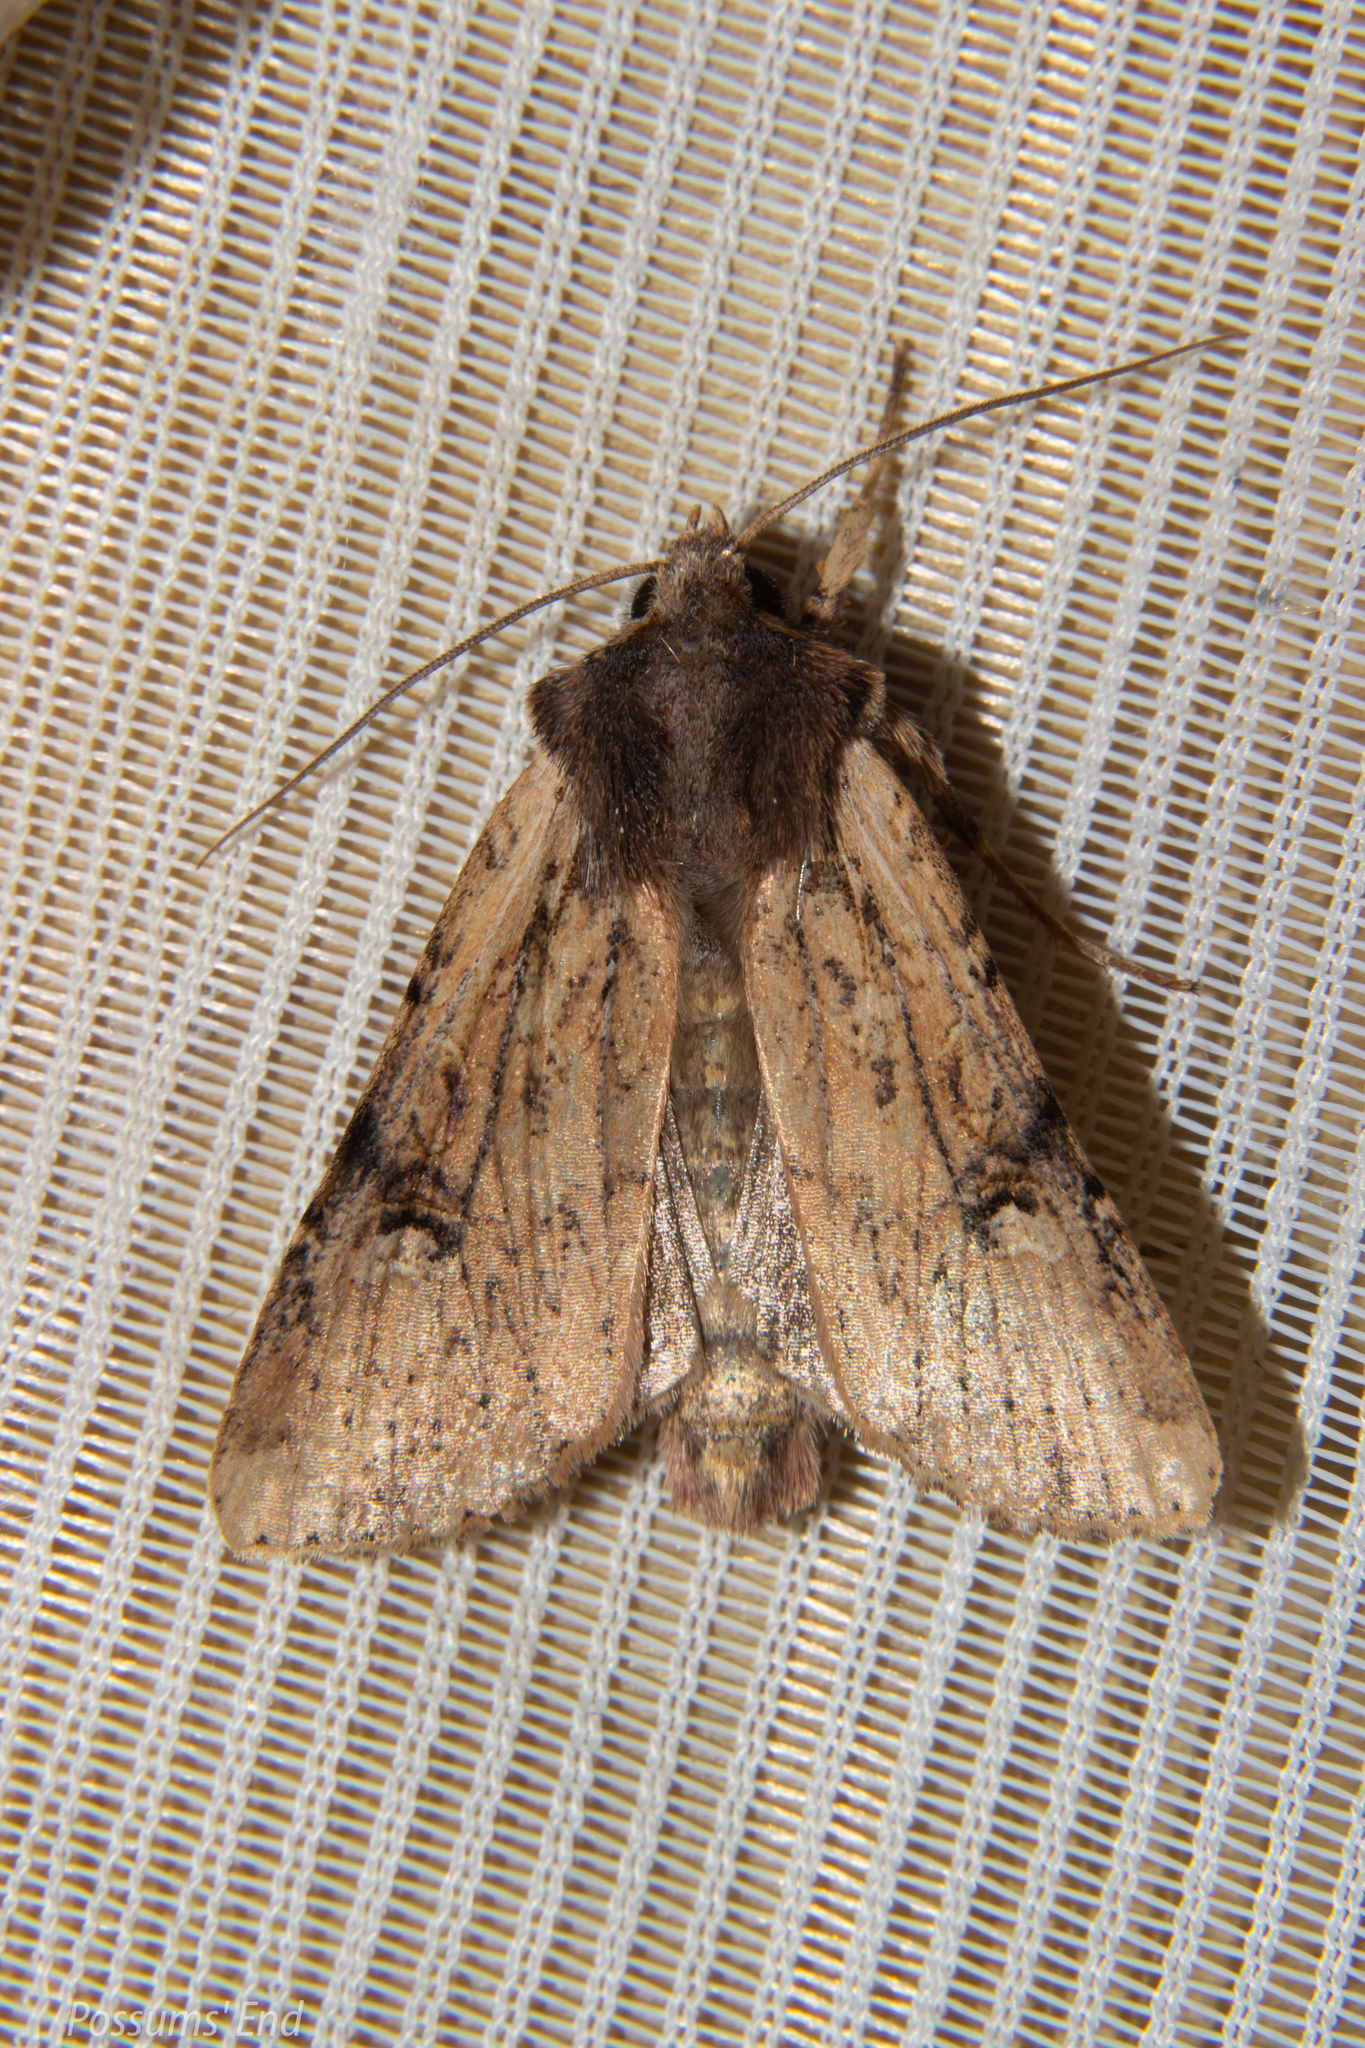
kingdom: Animalia
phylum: Arthropoda
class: Insecta
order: Lepidoptera
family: Noctuidae
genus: Ichneutica
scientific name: Ichneutica omoplaca
